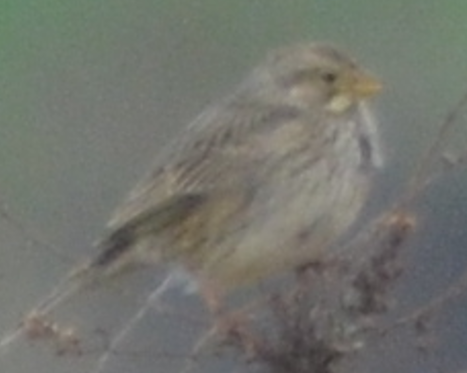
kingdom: Animalia
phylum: Chordata
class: Aves
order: Passeriformes
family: Emberizidae
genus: Emberiza
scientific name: Emberiza calandra
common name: Corn bunting
